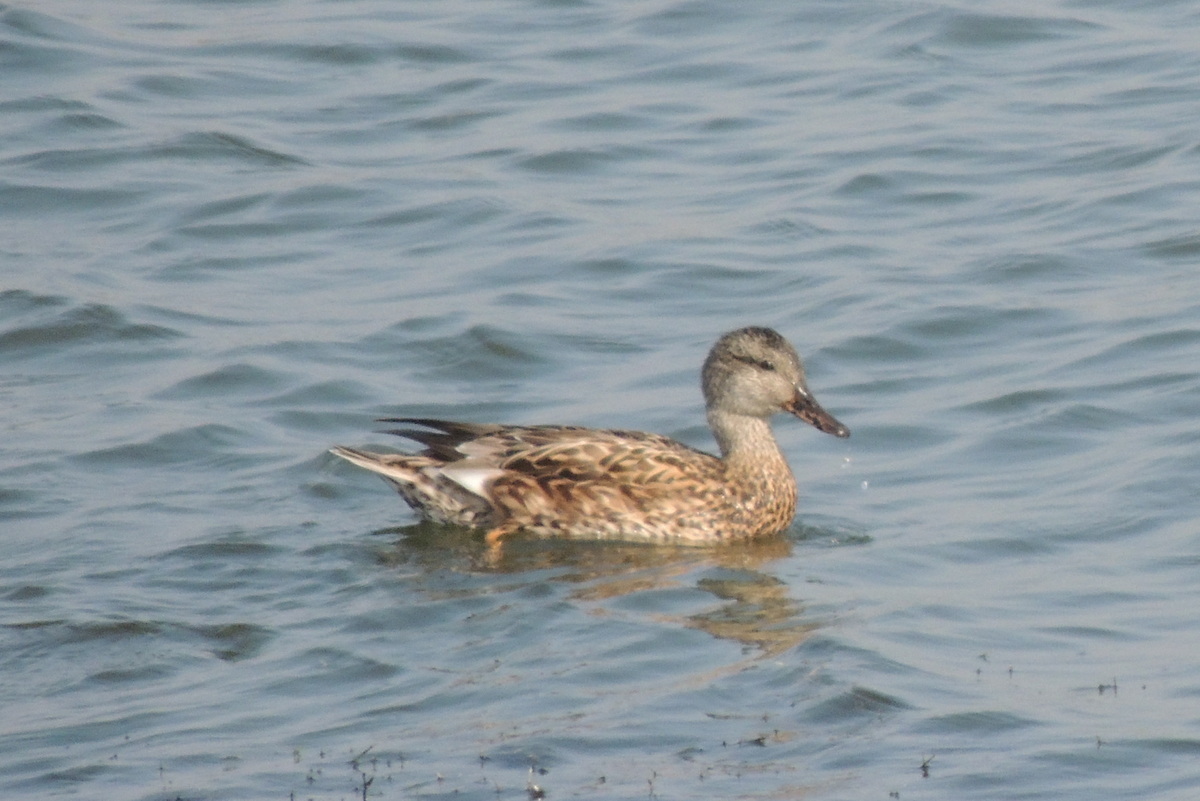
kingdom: Animalia
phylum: Chordata
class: Aves
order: Anseriformes
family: Anatidae
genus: Mareca
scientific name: Mareca strepera
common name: Gadwall
